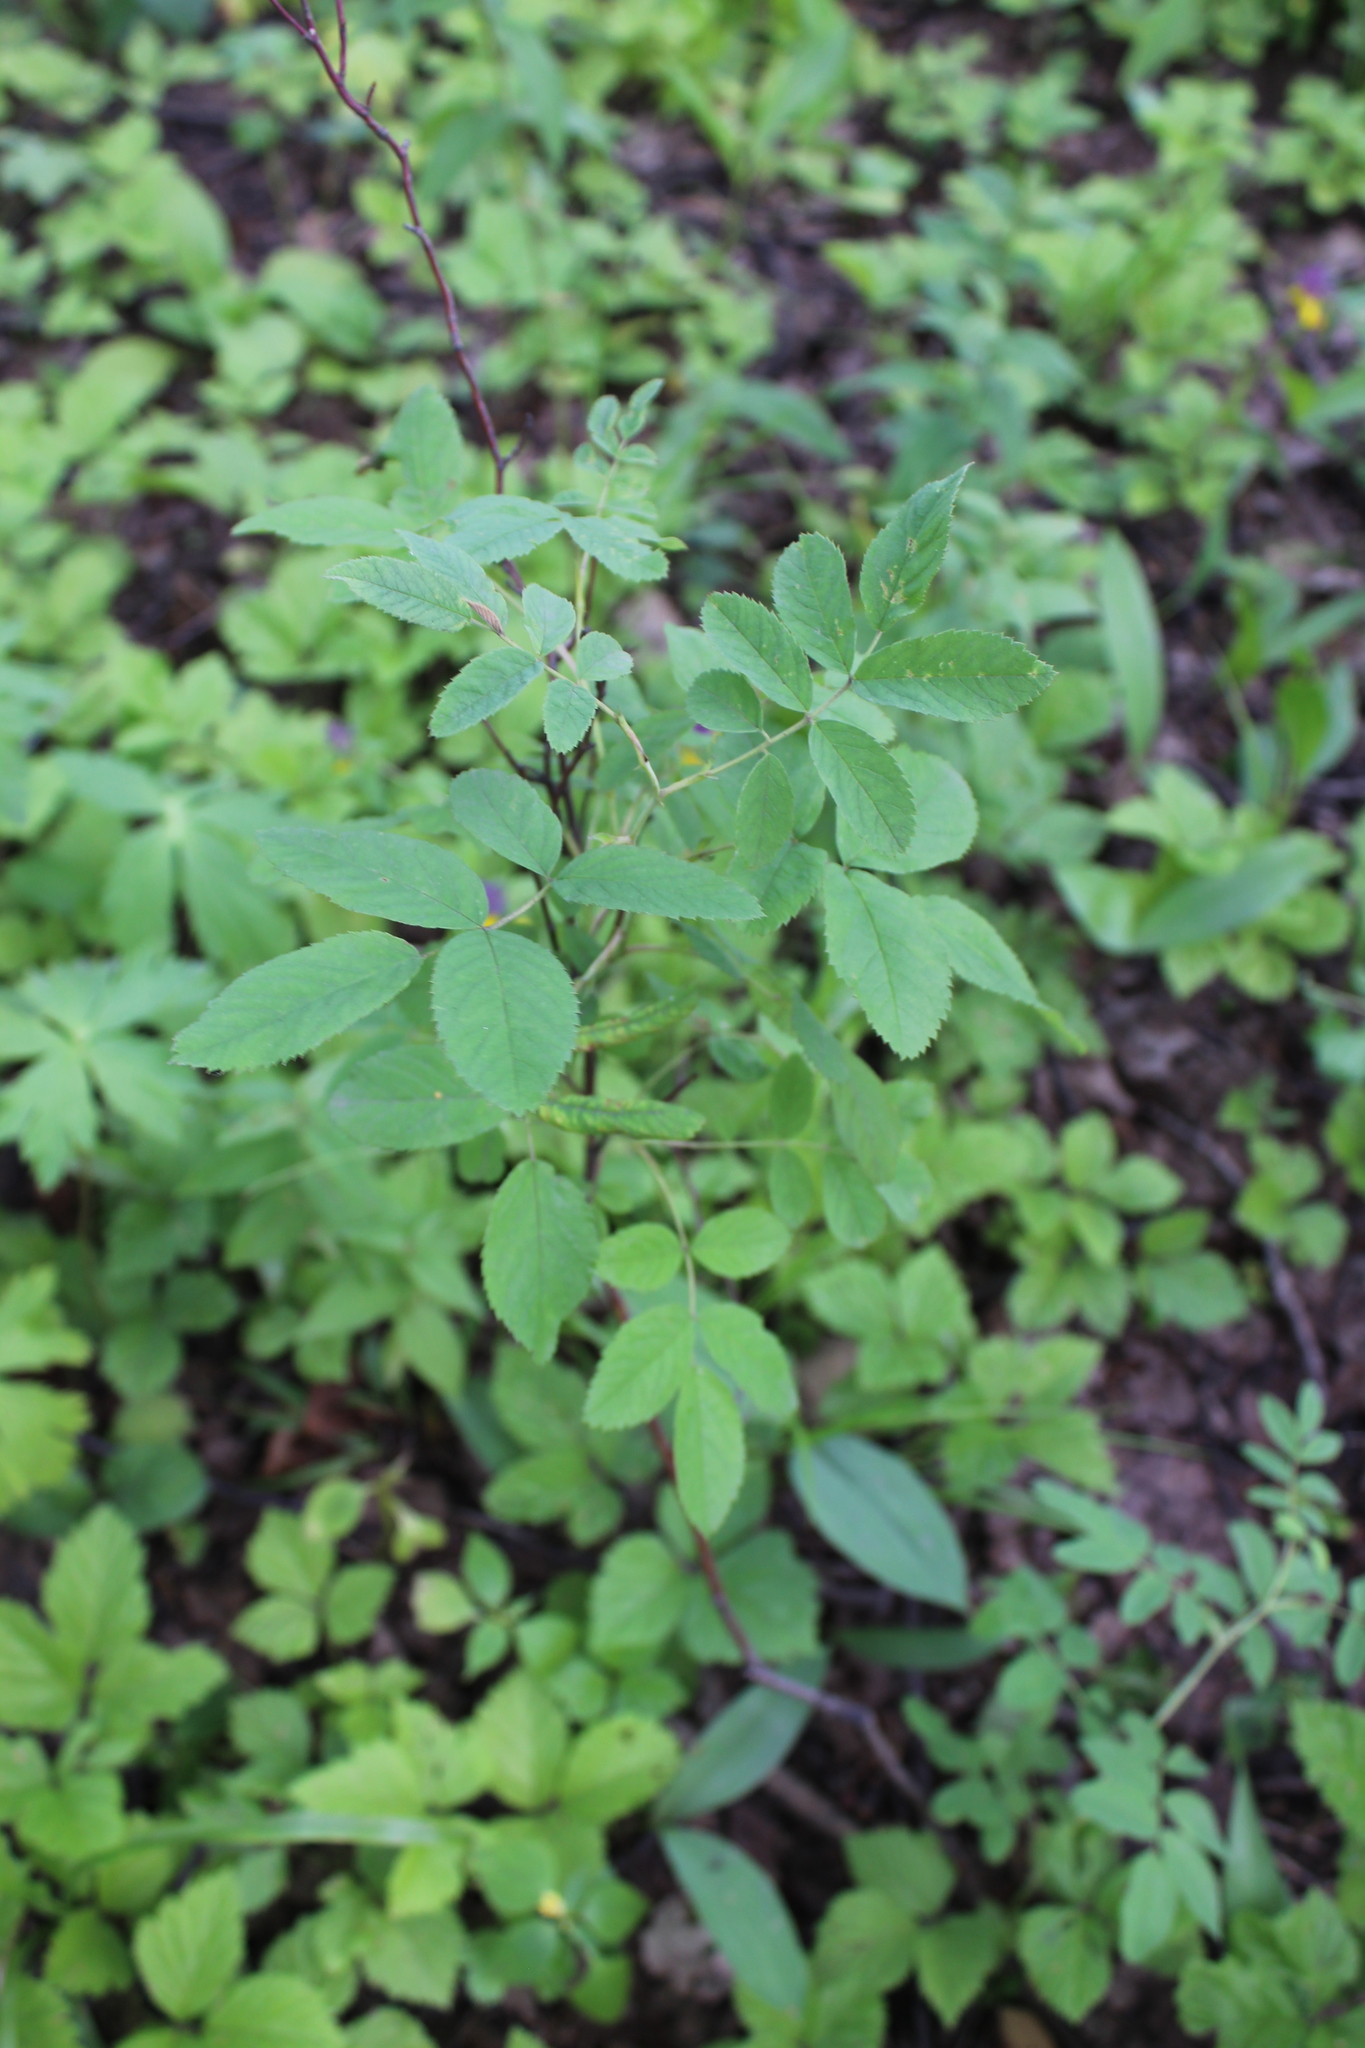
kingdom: Plantae
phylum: Tracheophyta
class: Magnoliopsida
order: Rosales
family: Rosaceae
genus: Rosa
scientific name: Rosa majalis
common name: Cinnamon rose
